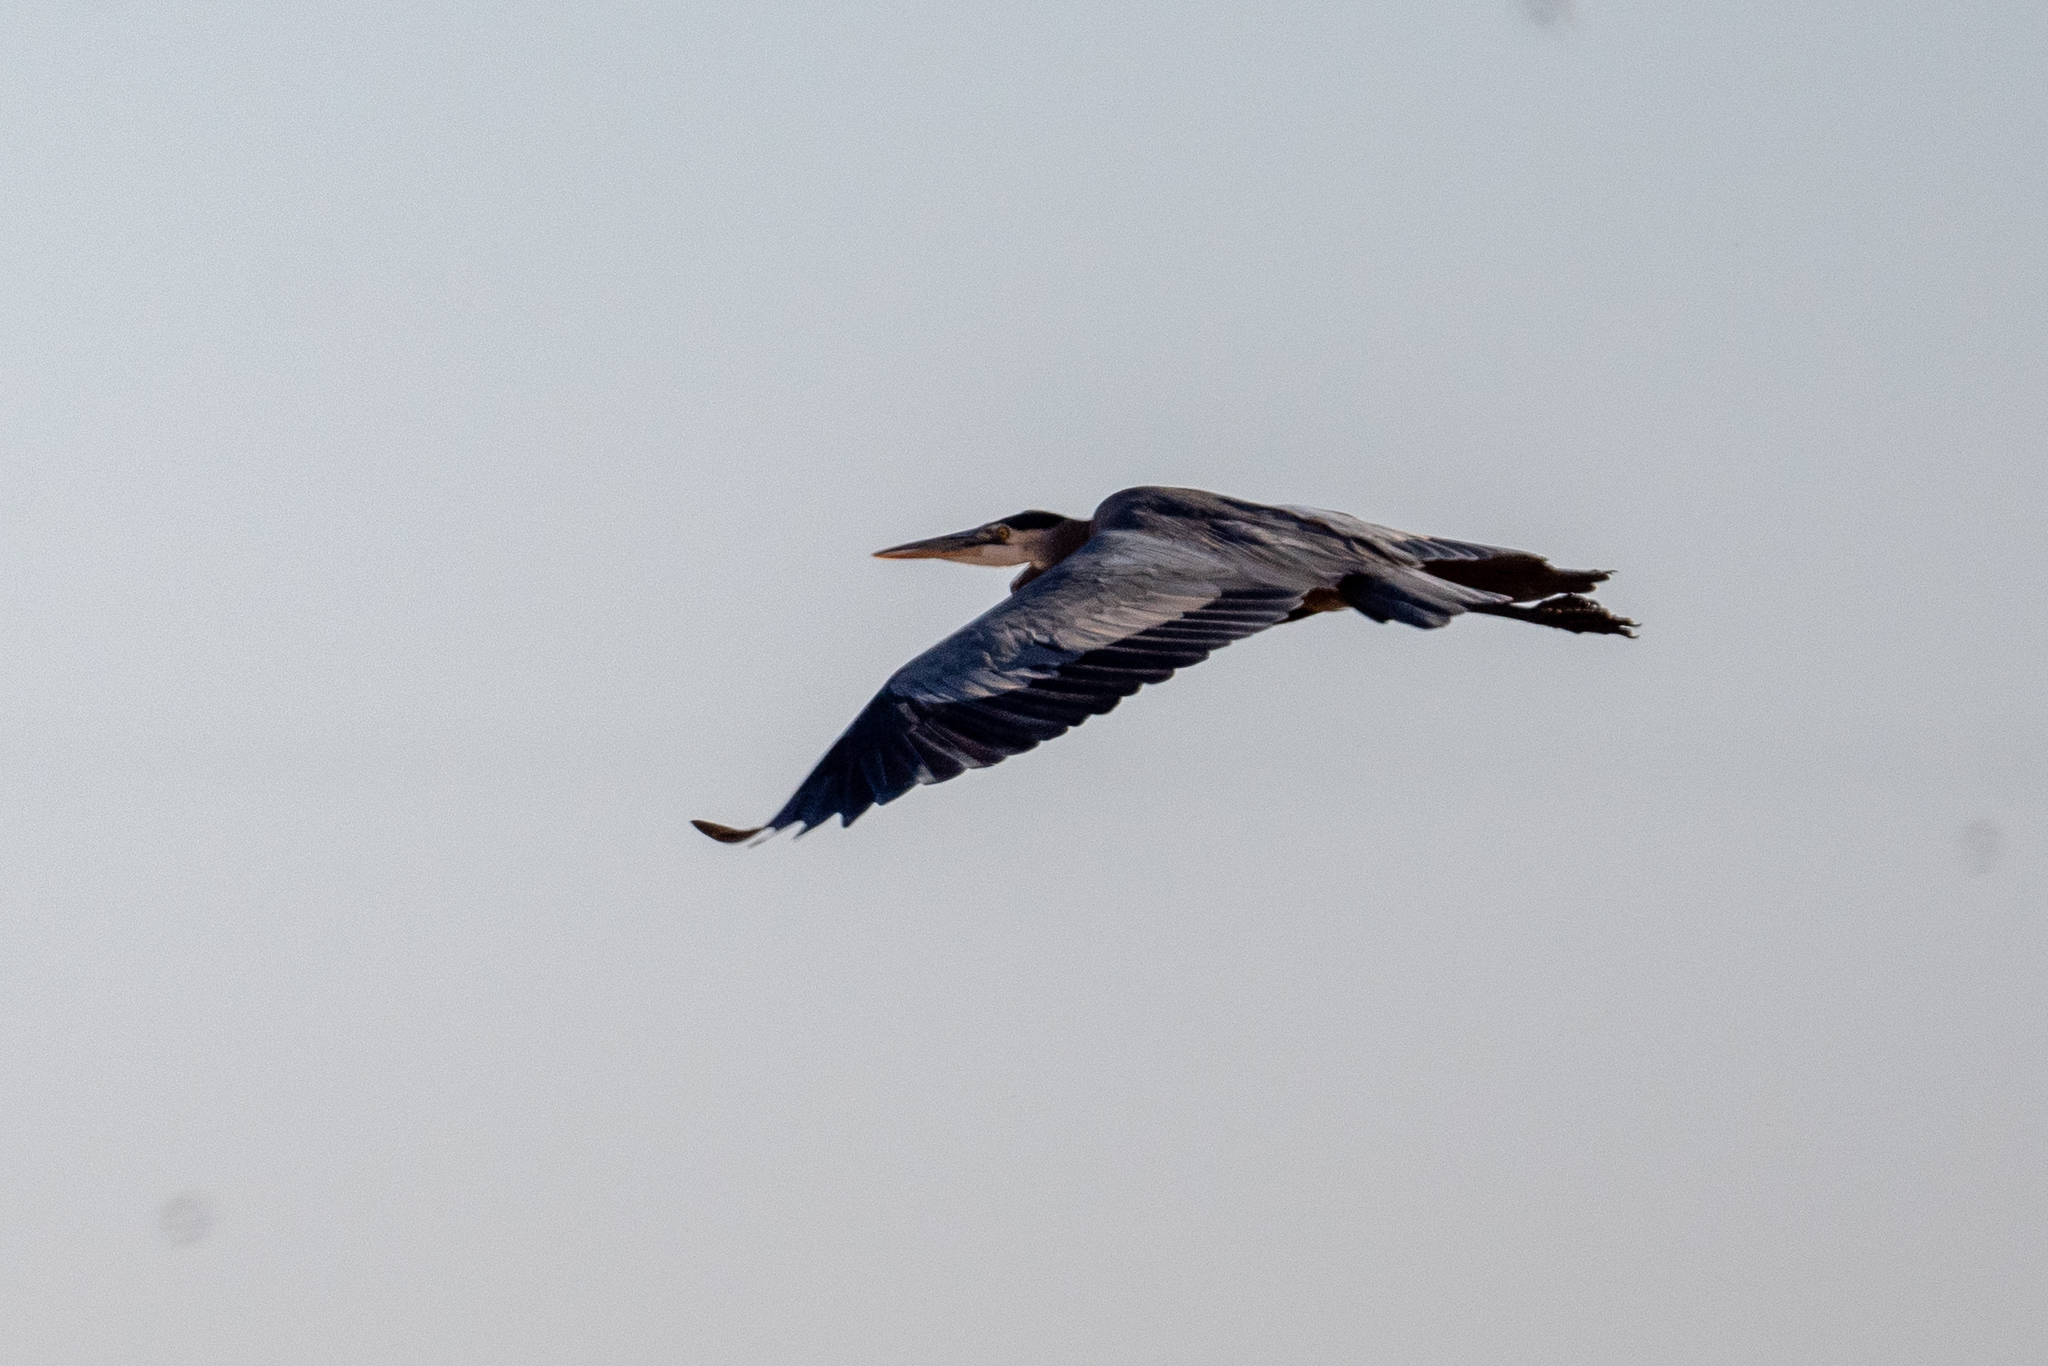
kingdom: Animalia
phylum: Chordata
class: Aves
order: Pelecaniformes
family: Ardeidae
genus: Ardea
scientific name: Ardea herodias
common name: Great blue heron
